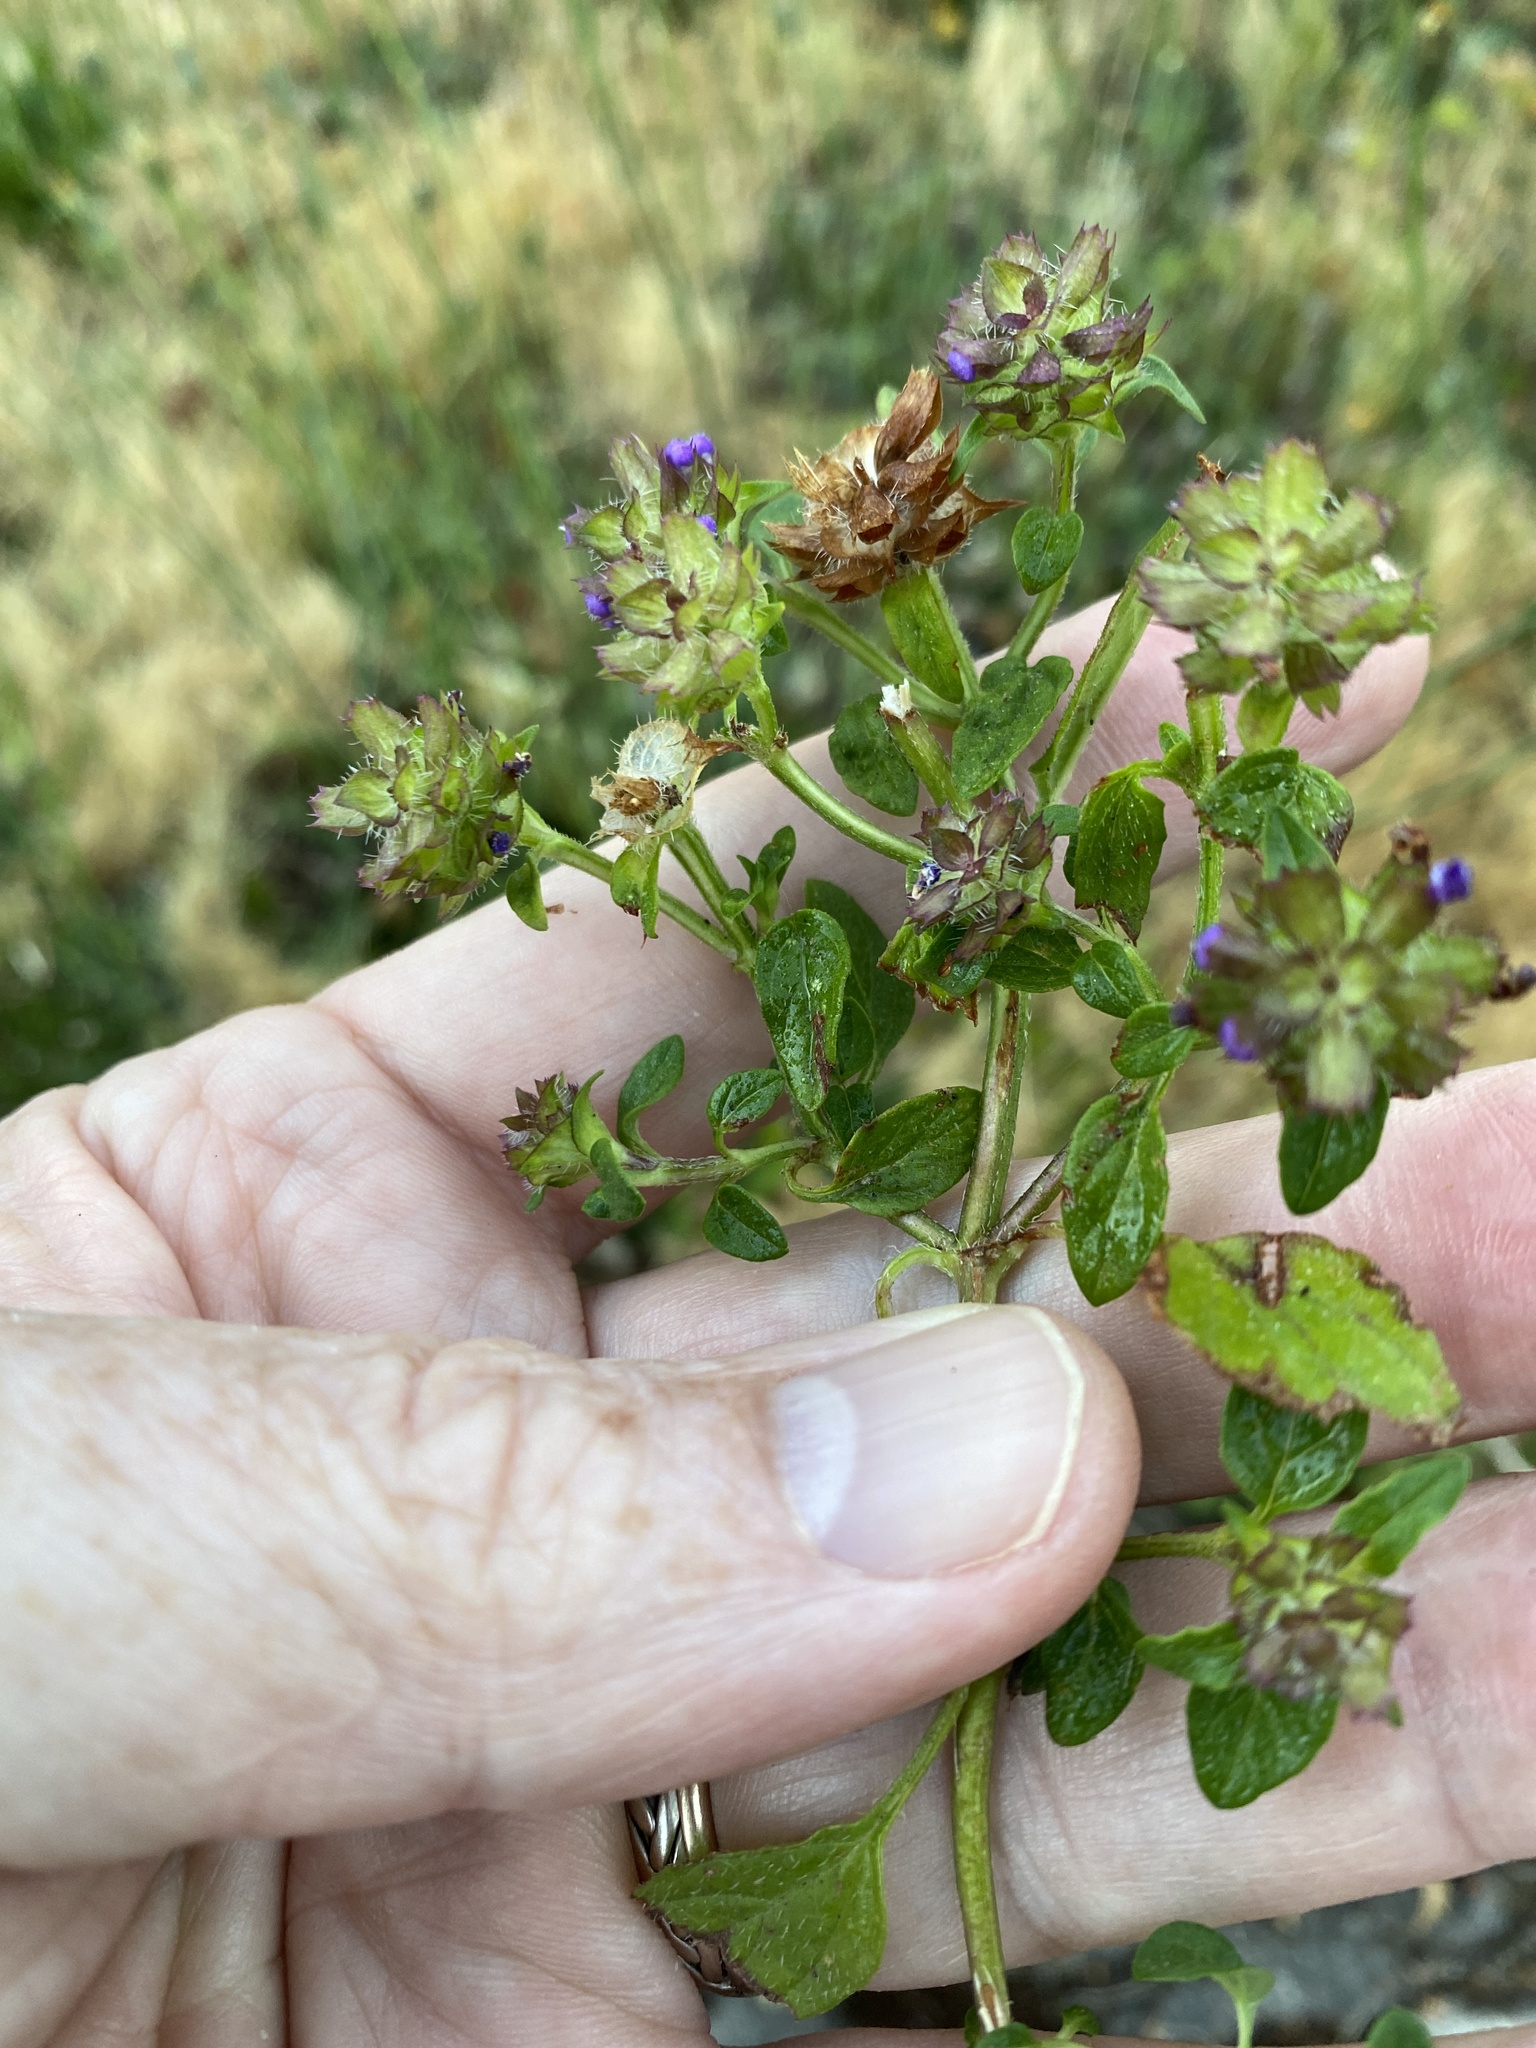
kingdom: Plantae
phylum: Tracheophyta
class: Magnoliopsida
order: Lamiales
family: Lamiaceae
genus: Prunella
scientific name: Prunella vulgaris
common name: Heal-all
